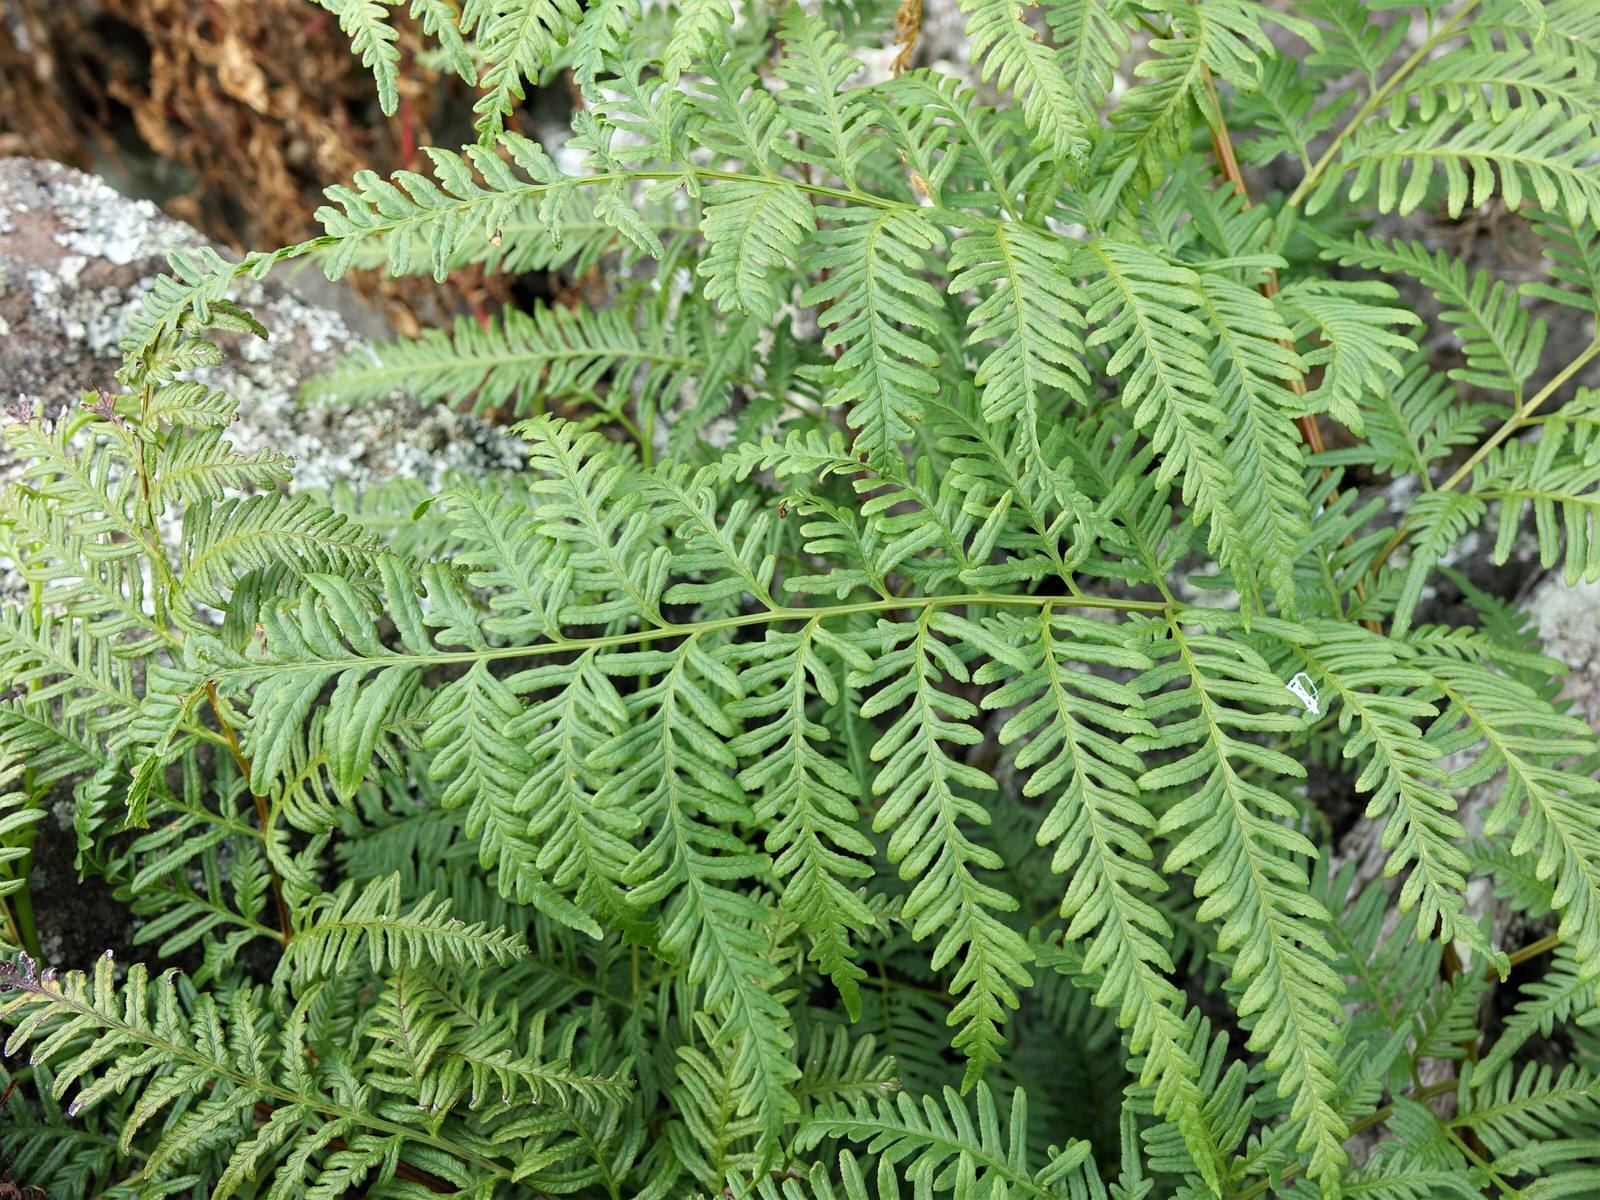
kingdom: Plantae
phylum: Tracheophyta
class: Polypodiopsida
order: Polypodiales
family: Pteridaceae
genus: Pteris
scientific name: Pteris tremula
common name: Australian brake
